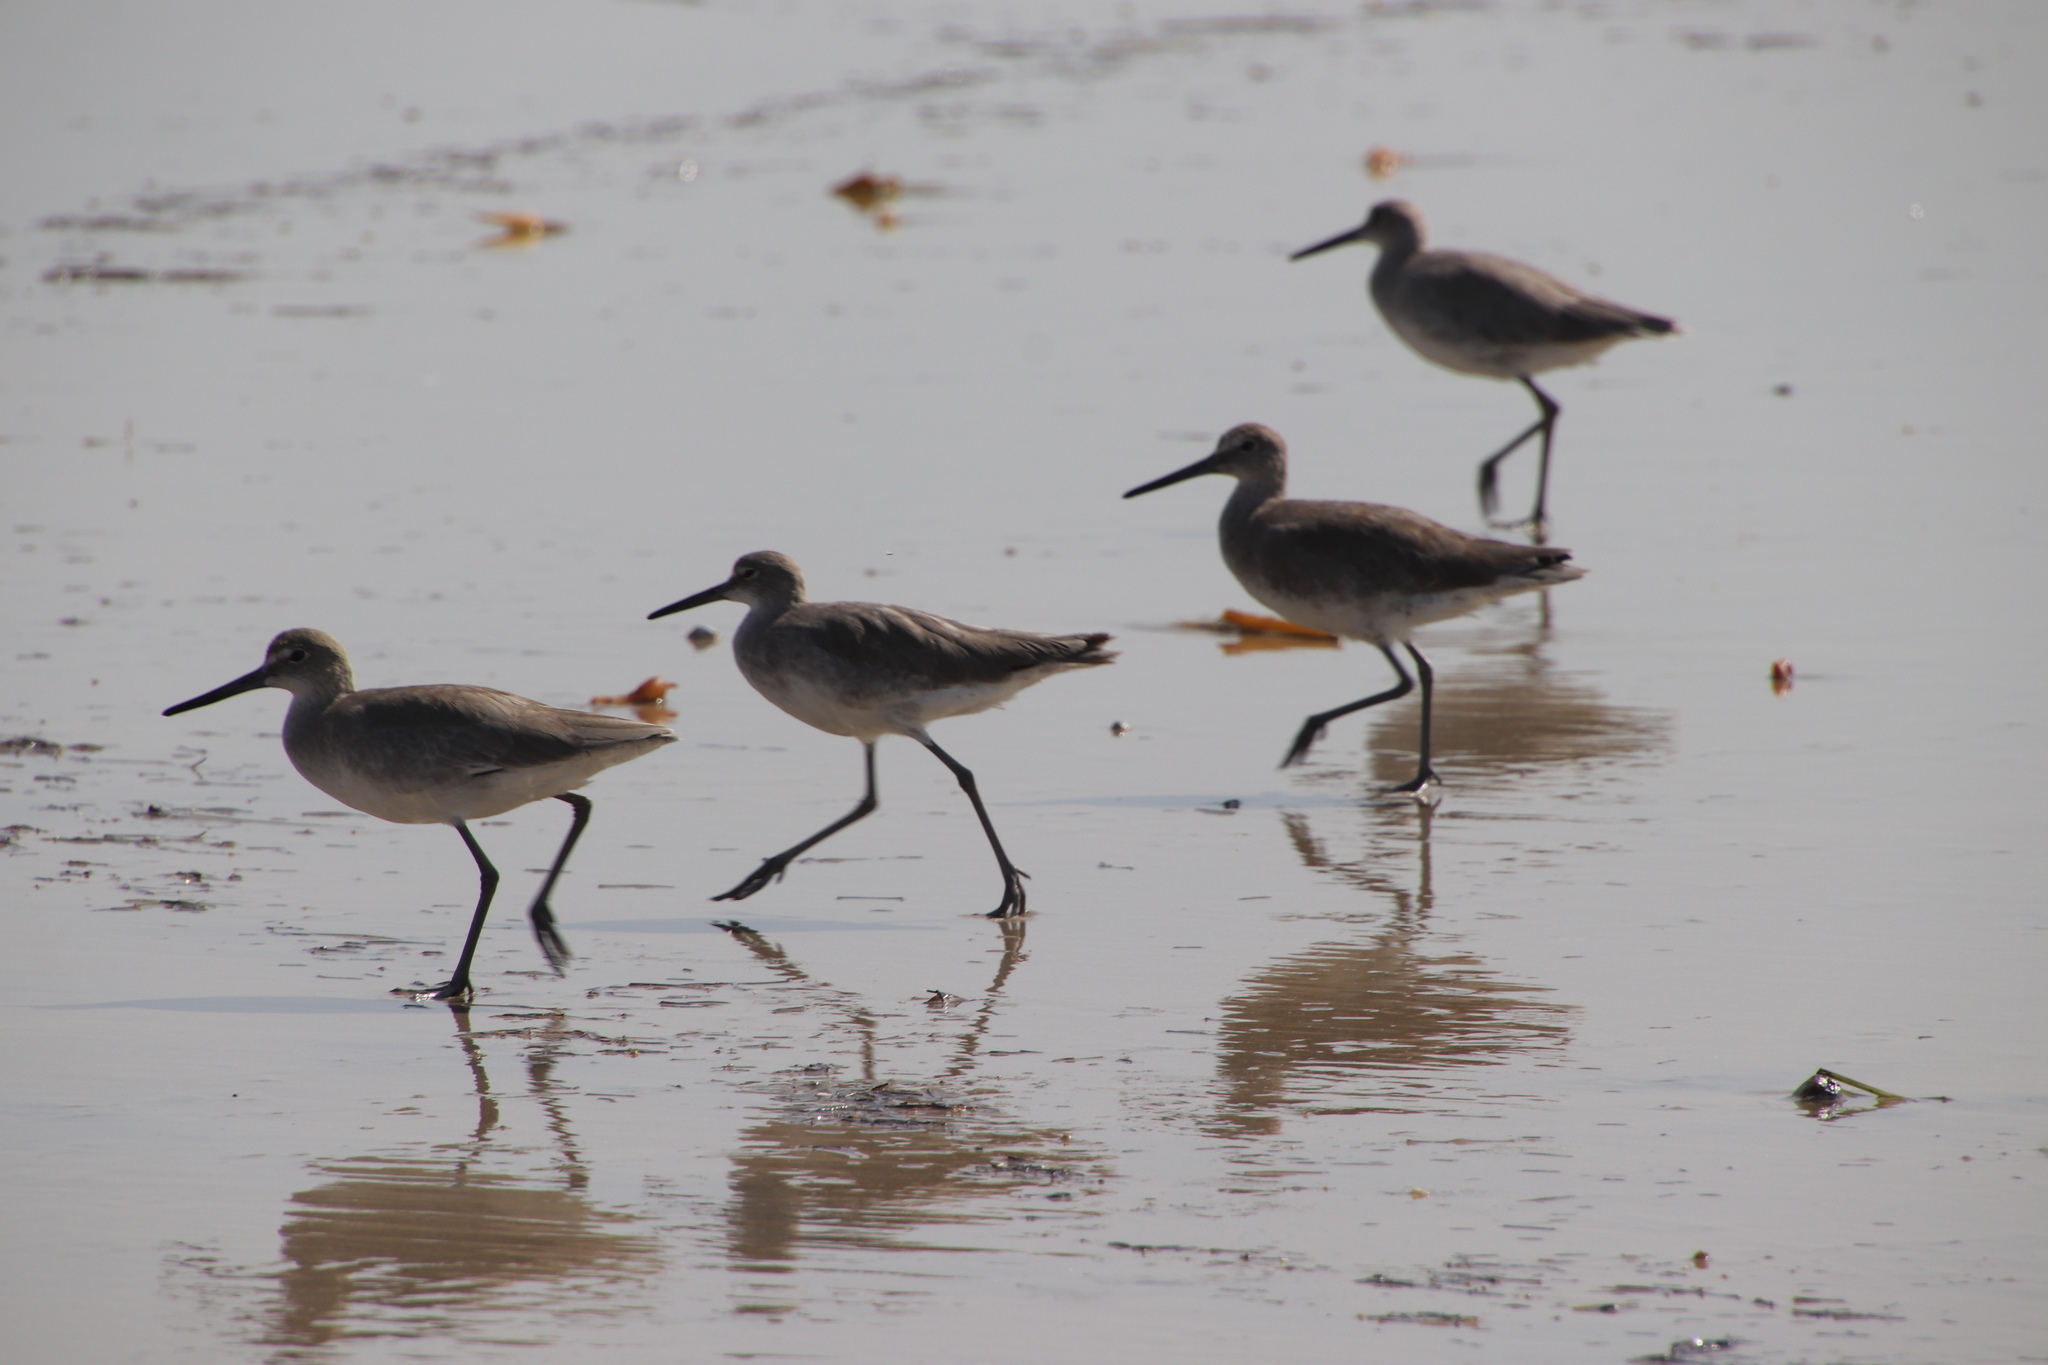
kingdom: Animalia
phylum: Chordata
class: Aves
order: Charadriiformes
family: Scolopacidae
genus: Tringa
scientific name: Tringa semipalmata
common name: Willet
